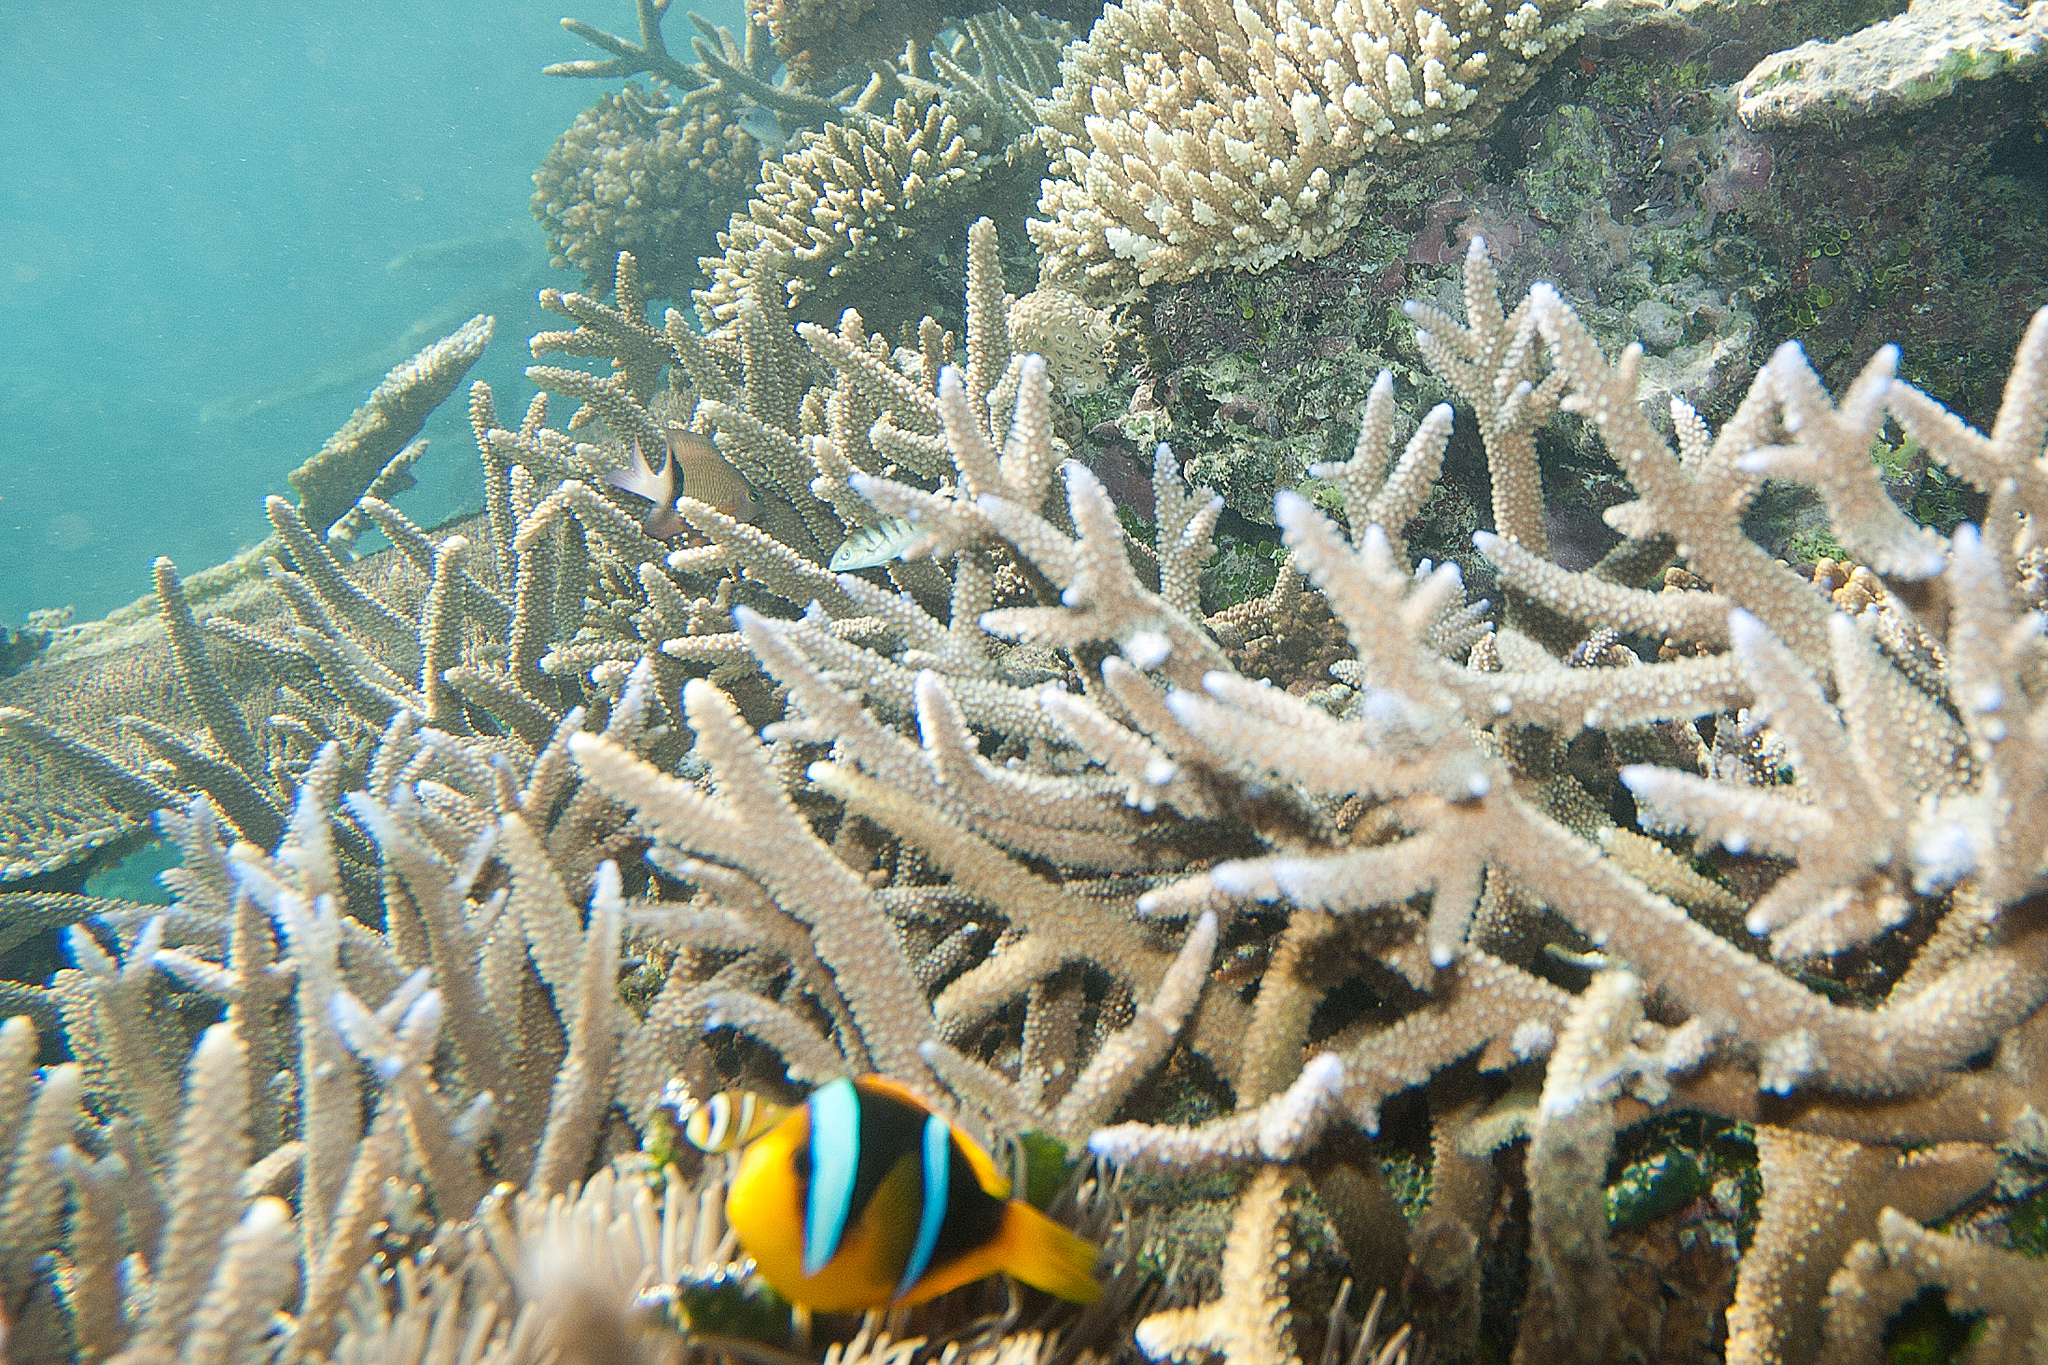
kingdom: Animalia
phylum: Chordata
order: Perciformes
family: Pomacentridae
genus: Amphiprion
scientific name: Amphiprion chrysopterus
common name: Orange-fin anemonefish
